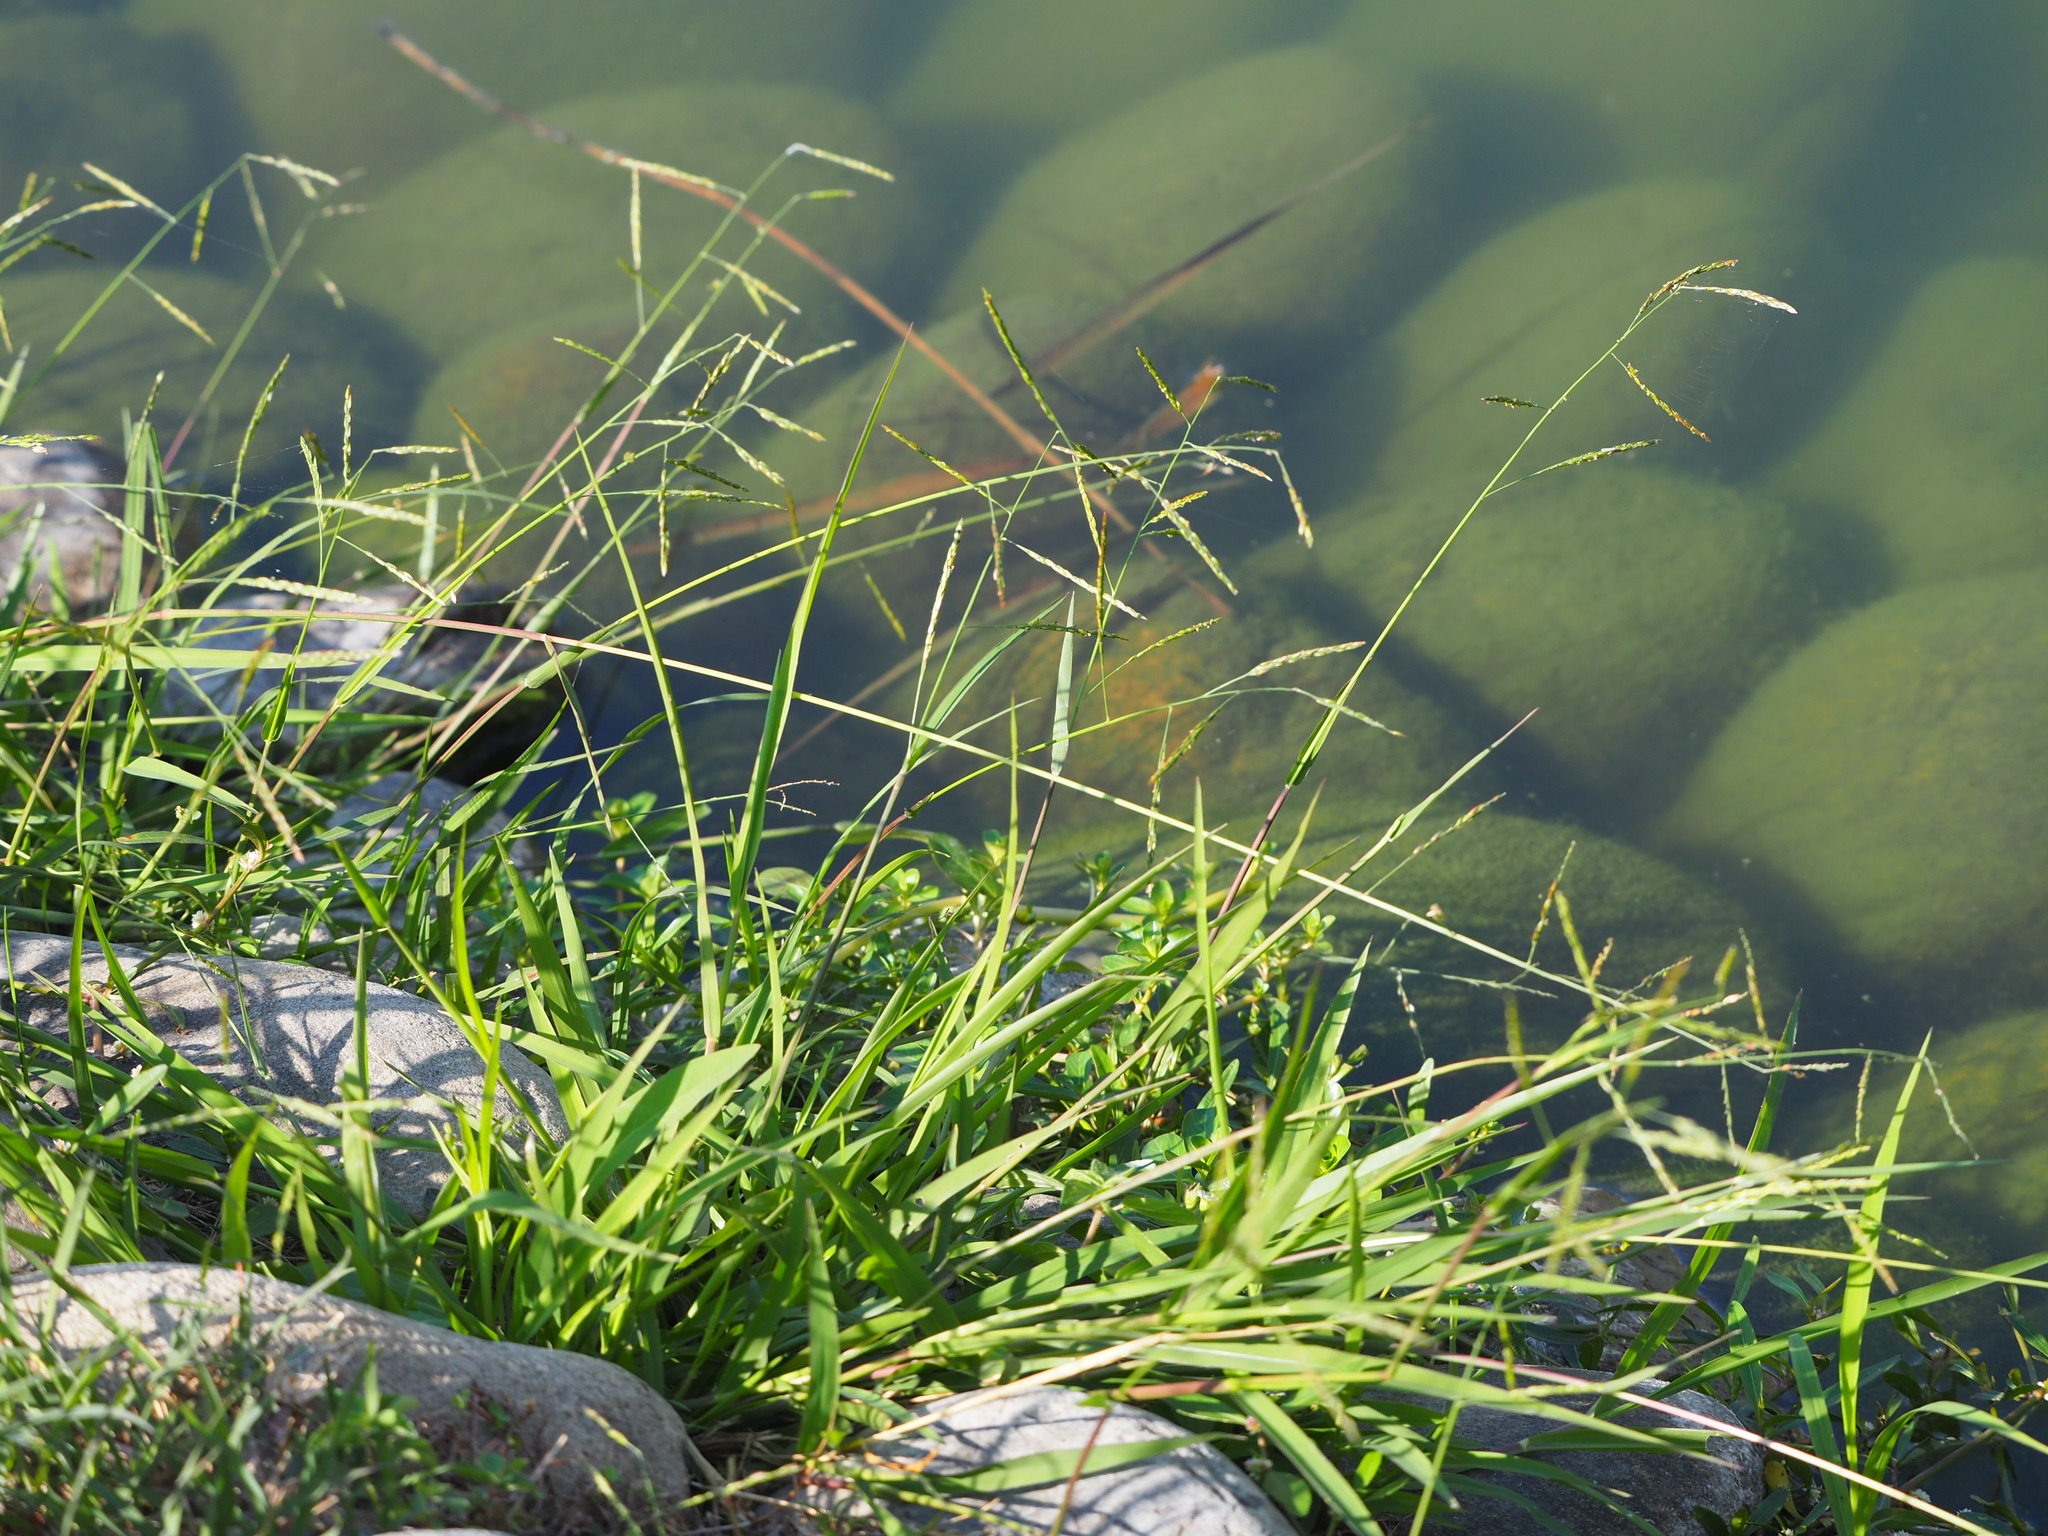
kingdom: Plantae
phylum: Tracheophyta
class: Liliopsida
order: Poales
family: Poaceae
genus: Eriochloa
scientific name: Eriochloa procera
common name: Spring grass
